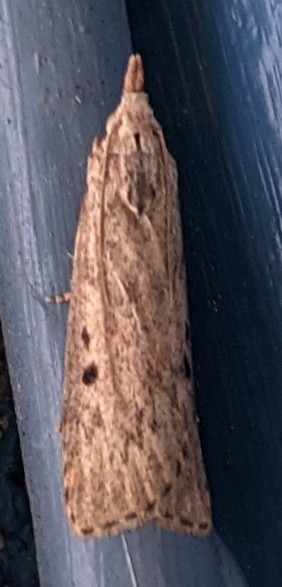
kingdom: Animalia
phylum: Arthropoda
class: Insecta
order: Lepidoptera
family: Pyralidae
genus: Aphomia
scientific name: Aphomia sociella
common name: Bee moth
